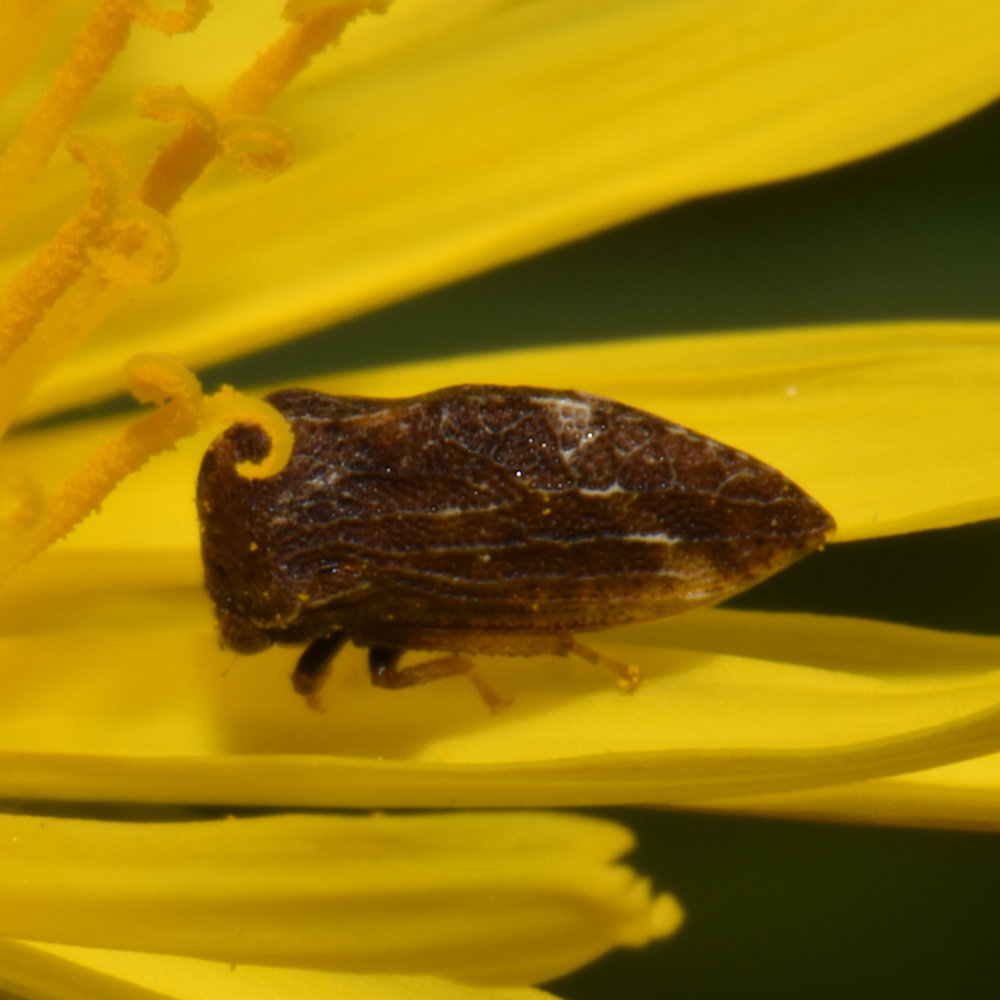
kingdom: Animalia
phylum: Arthropoda
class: Insecta
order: Hemiptera
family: Membracidae
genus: Publilia
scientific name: Publilia concava
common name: Aster treehopper
